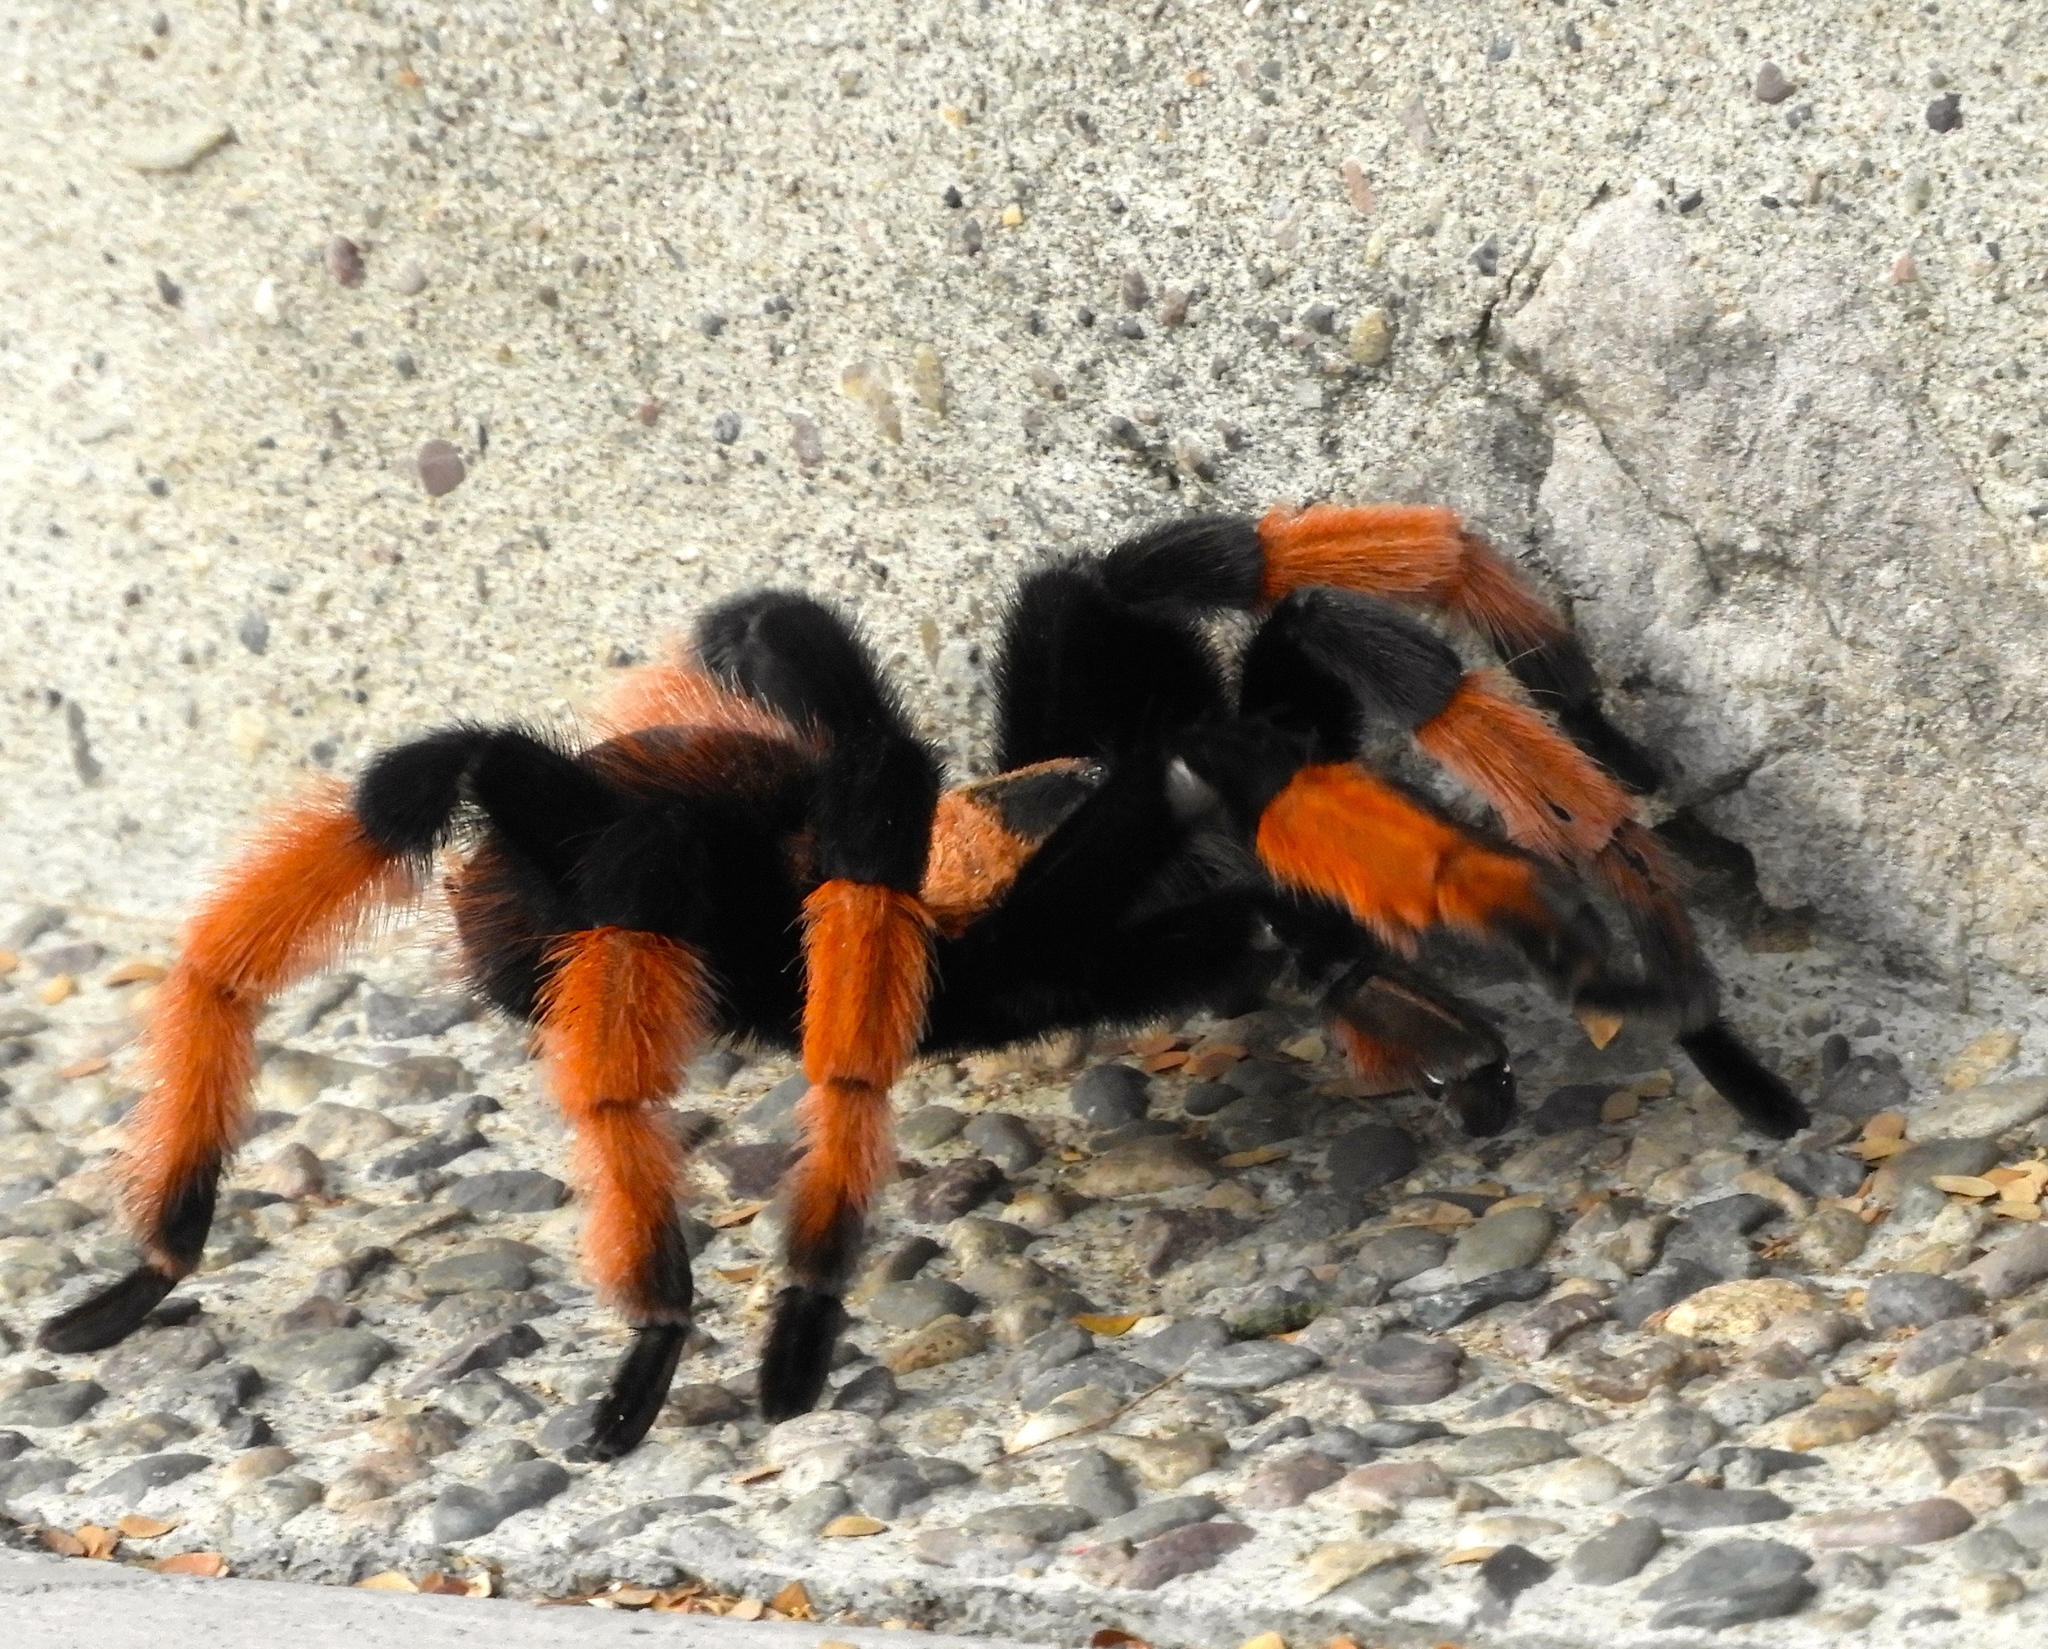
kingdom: Animalia
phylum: Arthropoda
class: Arachnida
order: Araneae
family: Theraphosidae
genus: Brachypelma
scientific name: Brachypelma emilia
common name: Mexican redleg
